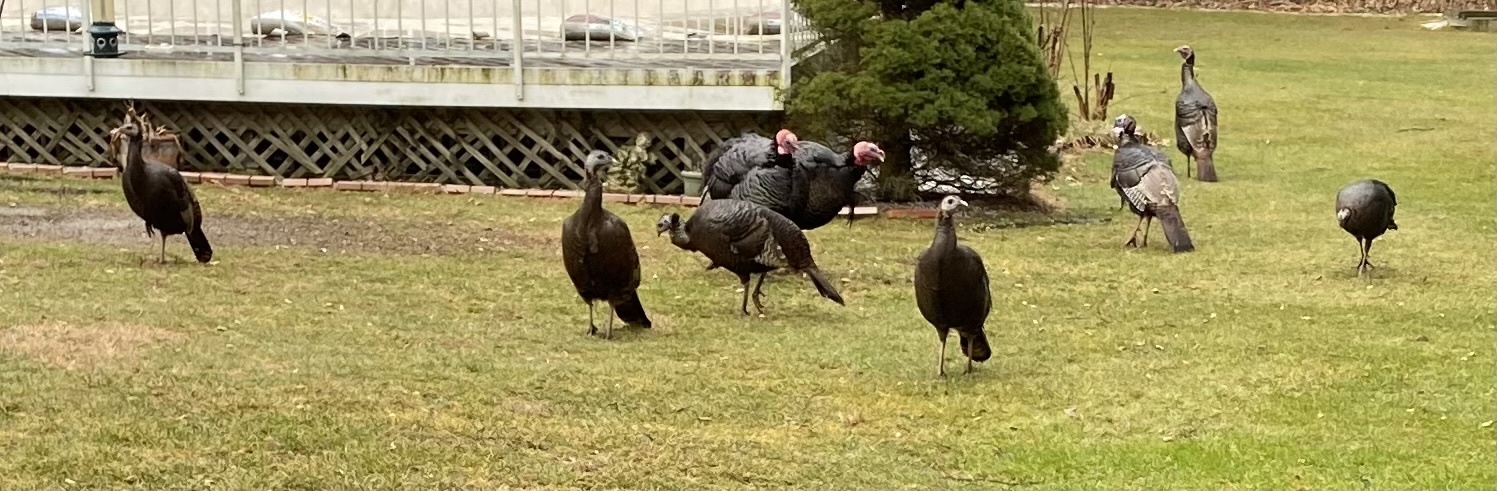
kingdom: Animalia
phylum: Chordata
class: Aves
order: Galliformes
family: Phasianidae
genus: Meleagris
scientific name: Meleagris gallopavo
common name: Wild turkey
